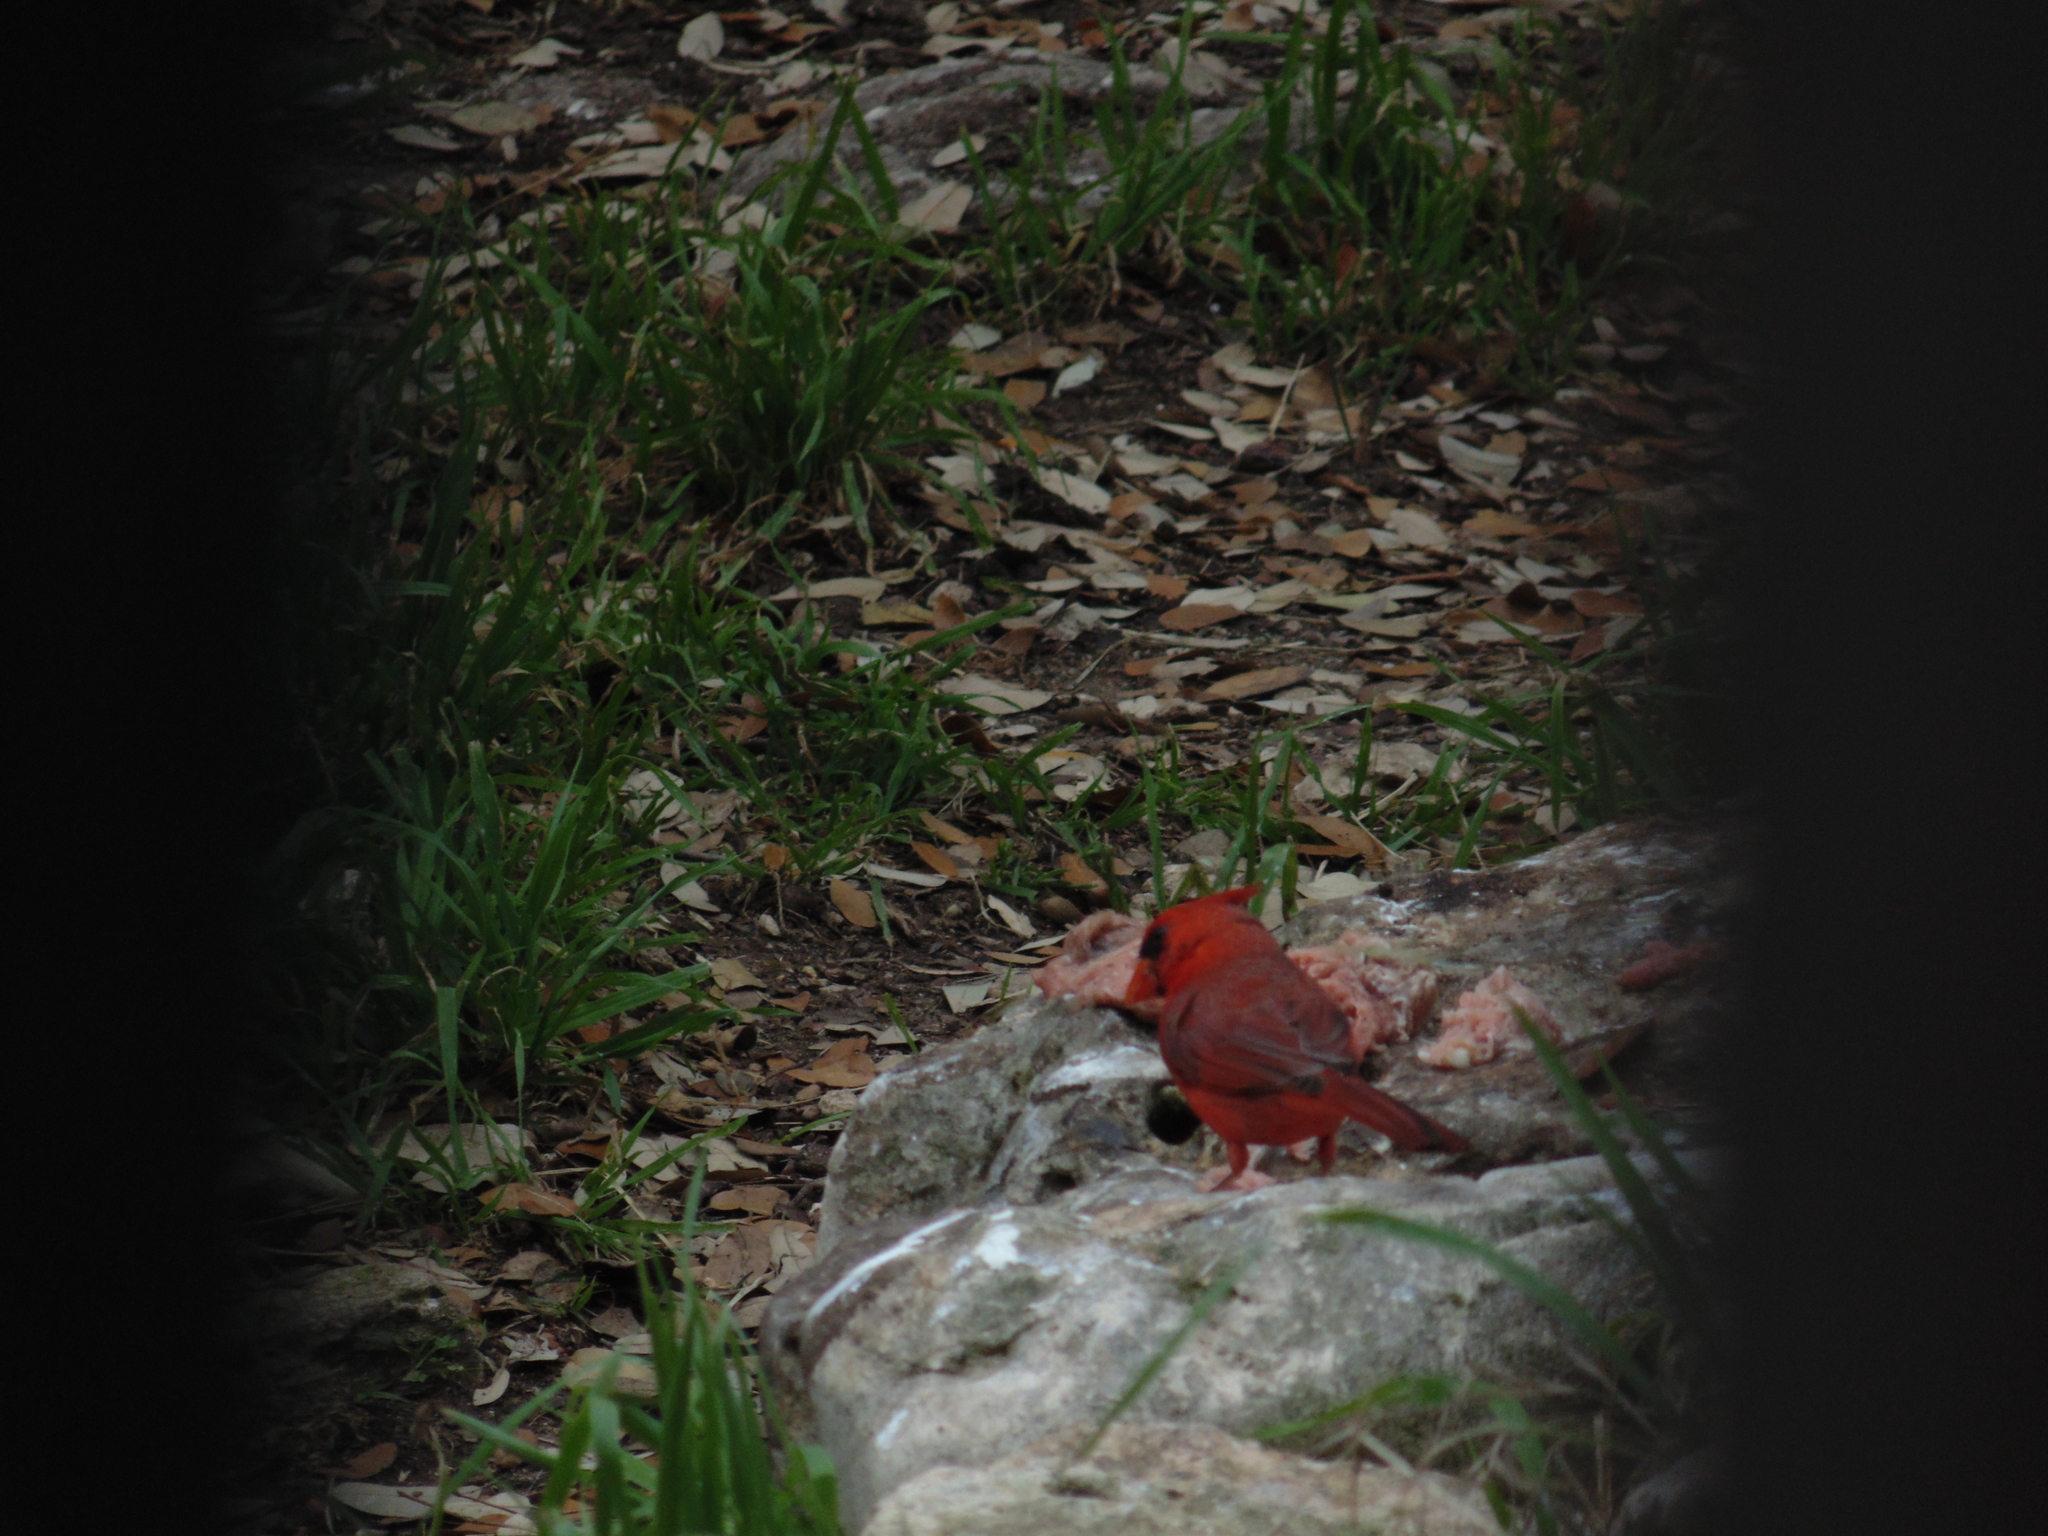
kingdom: Animalia
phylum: Chordata
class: Aves
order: Passeriformes
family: Cardinalidae
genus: Cardinalis
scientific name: Cardinalis cardinalis
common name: Northern cardinal
